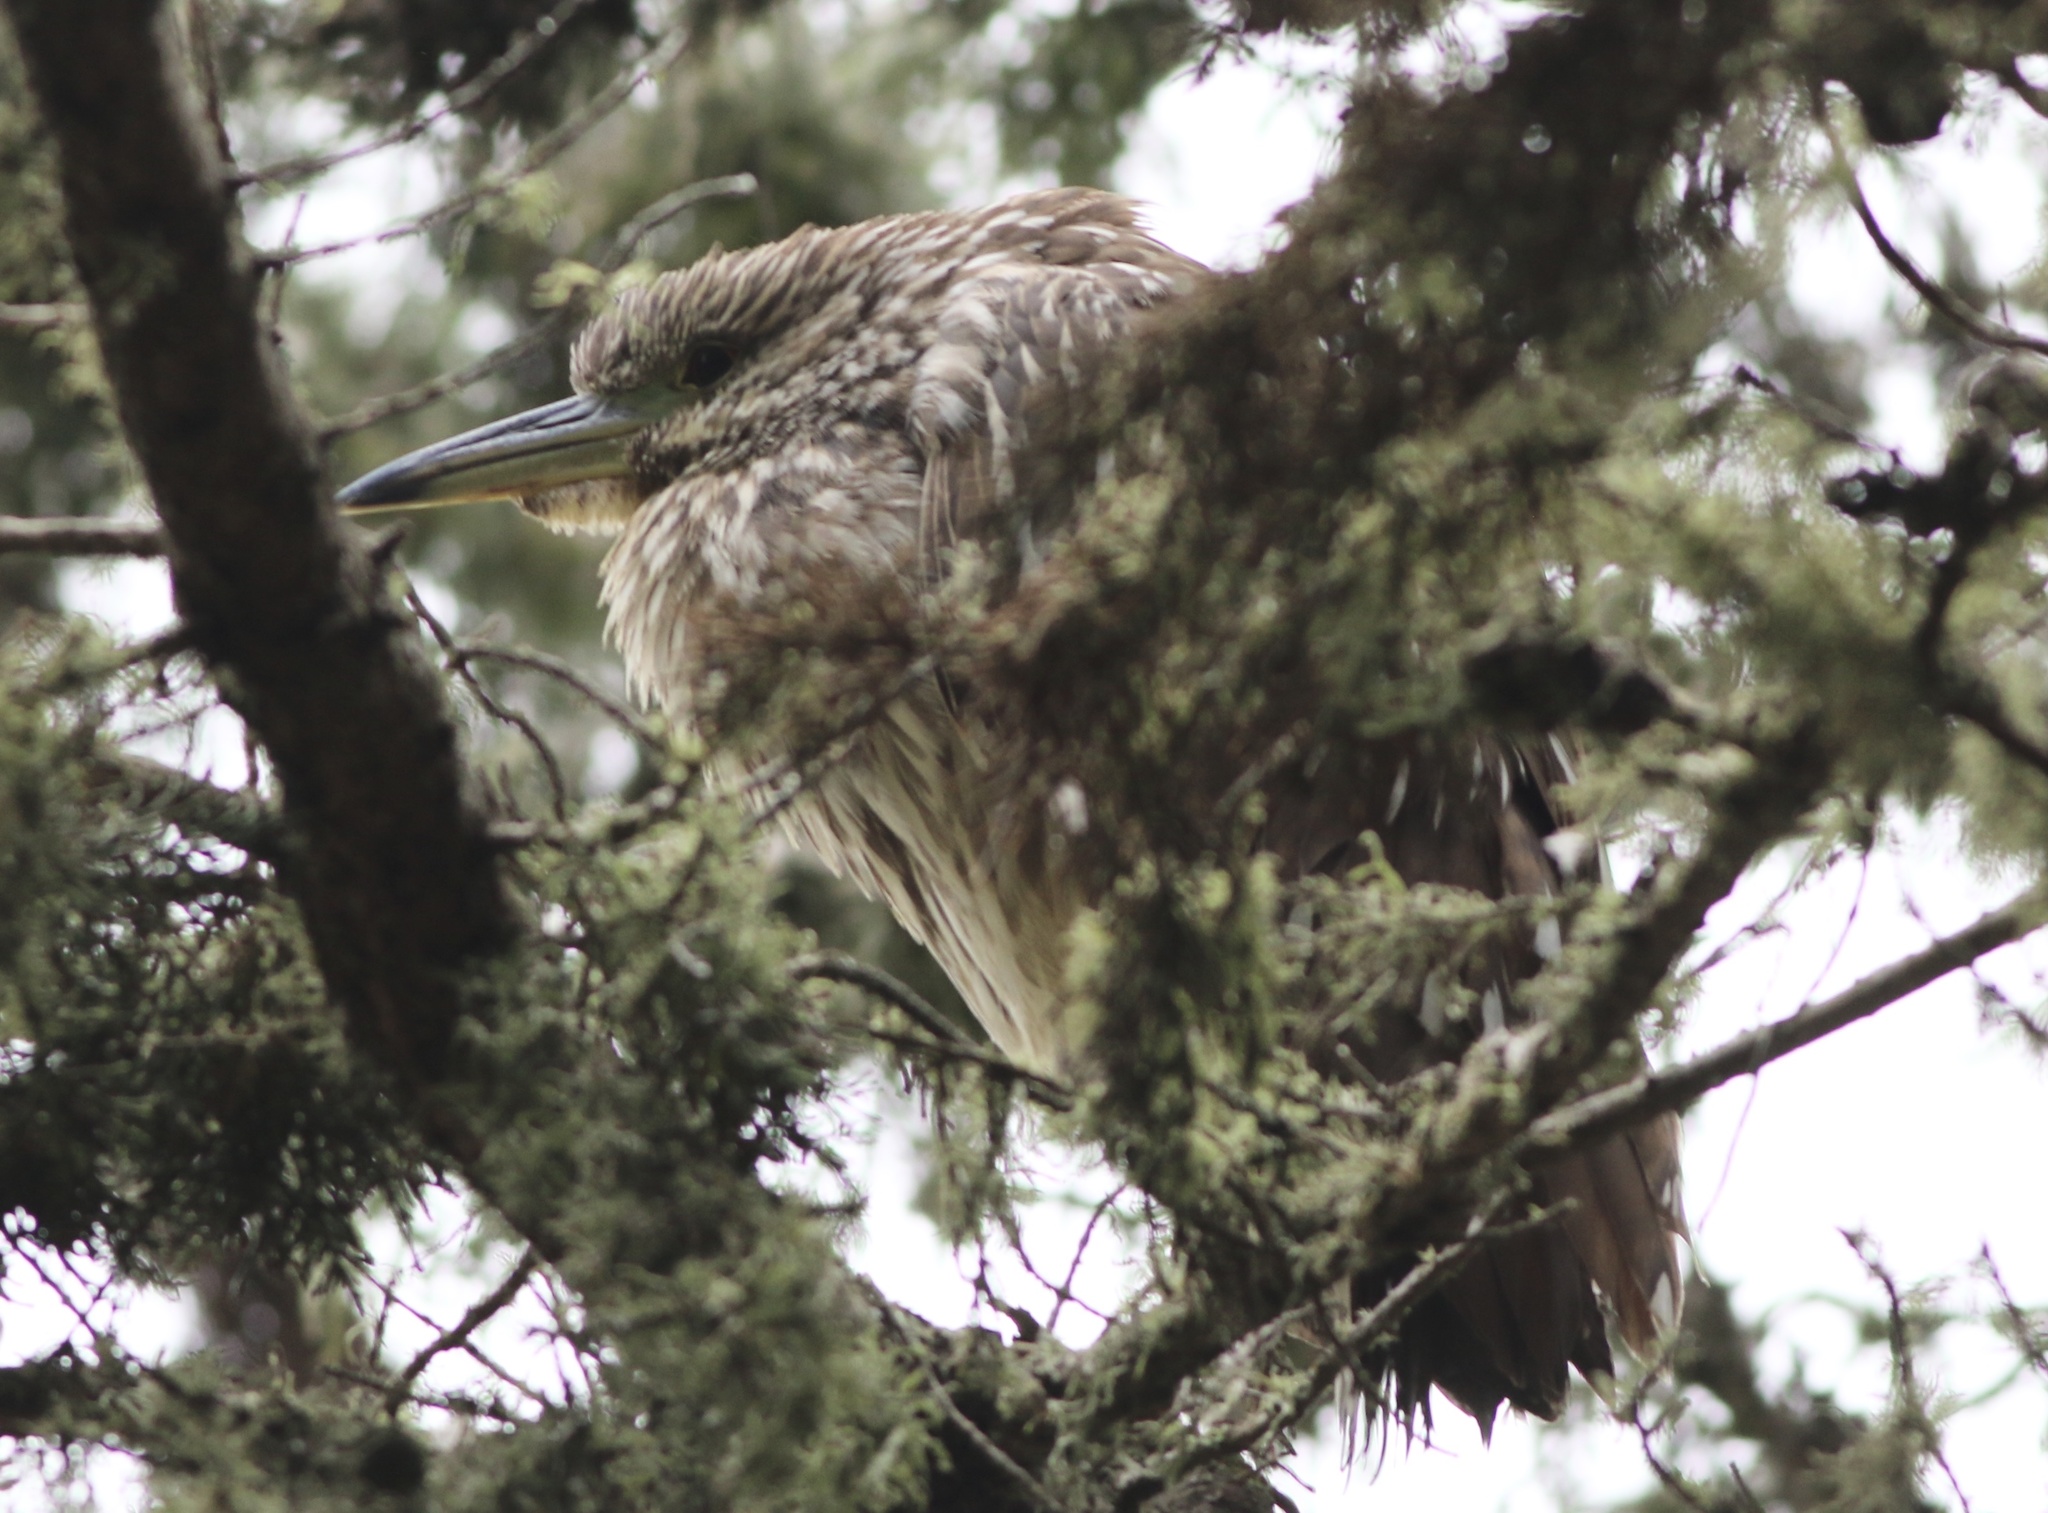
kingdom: Animalia
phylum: Chordata
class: Aves
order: Pelecaniformes
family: Ardeidae
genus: Nycticorax
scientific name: Nycticorax nycticorax
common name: Black-crowned night heron
